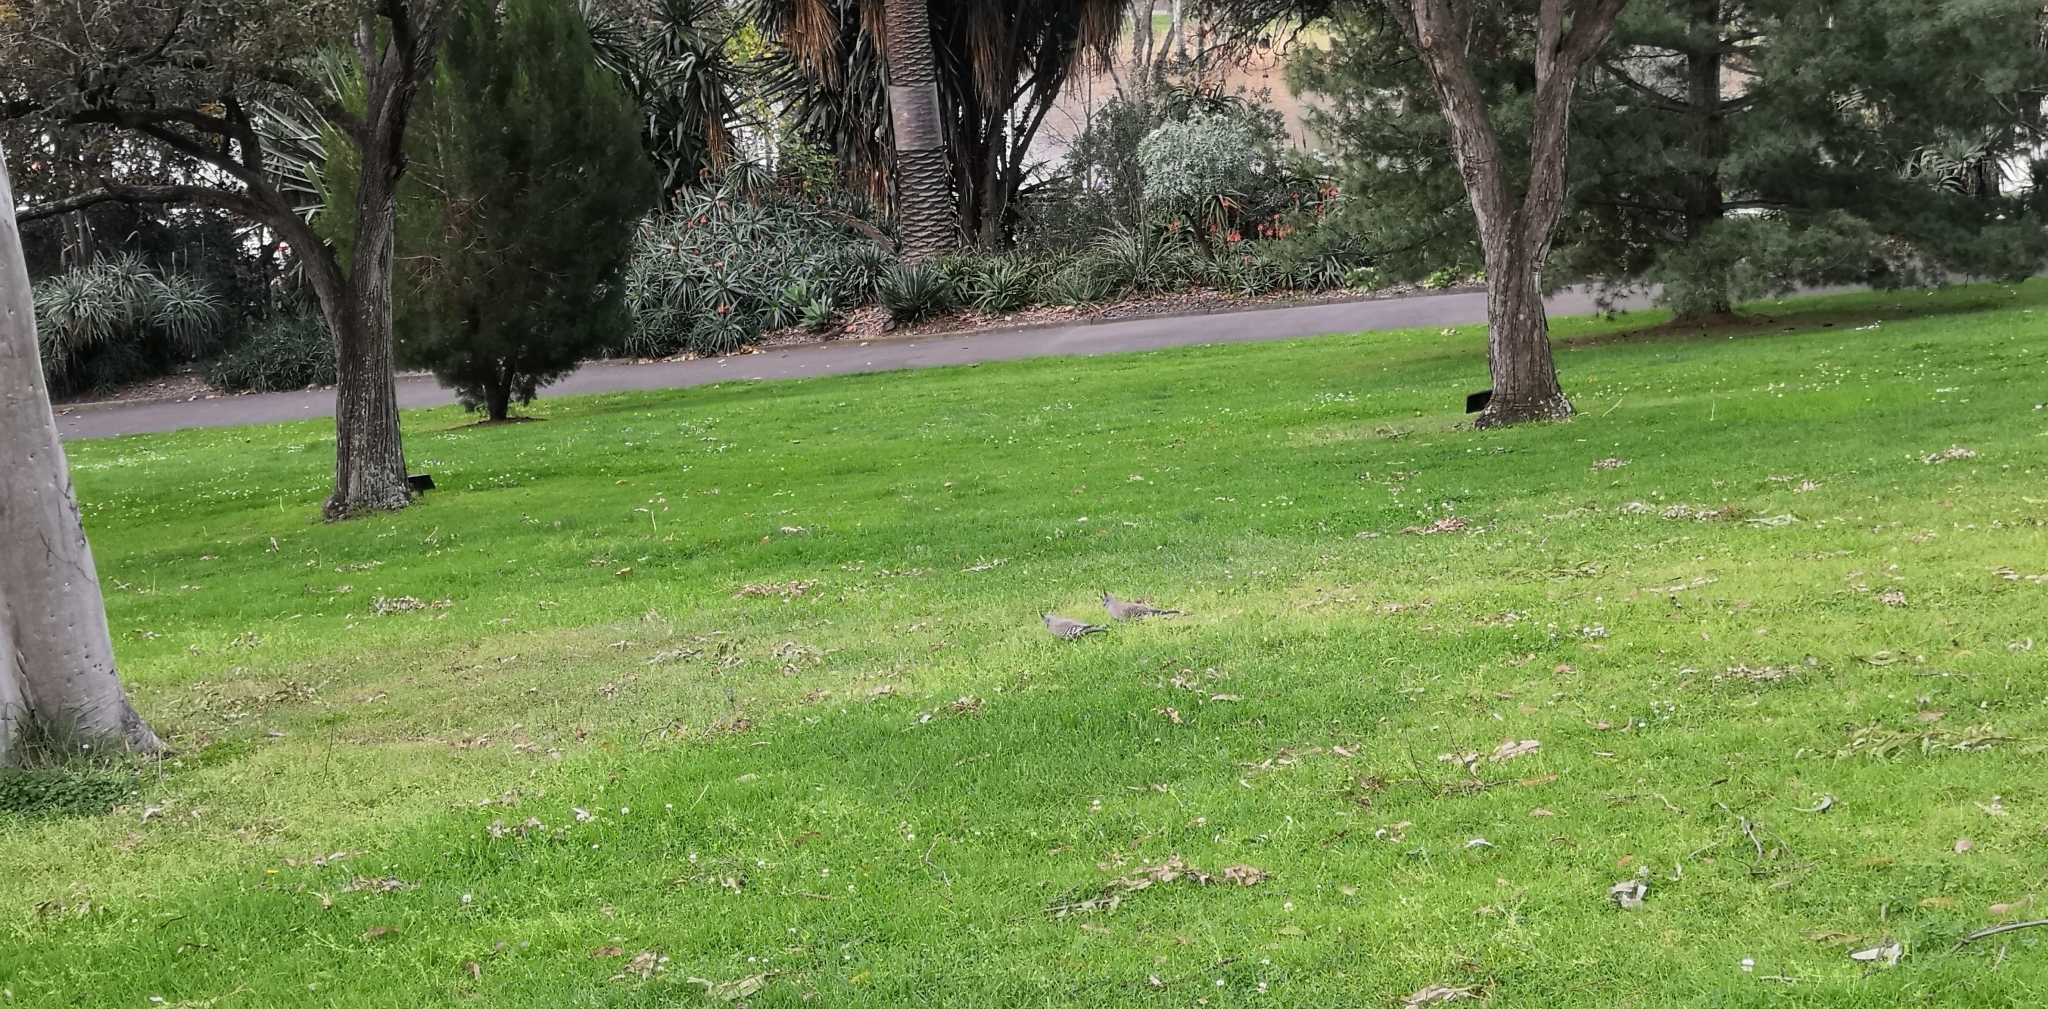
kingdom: Animalia
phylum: Chordata
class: Aves
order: Columbiformes
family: Columbidae
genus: Ocyphaps
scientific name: Ocyphaps lophotes
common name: Crested pigeon
